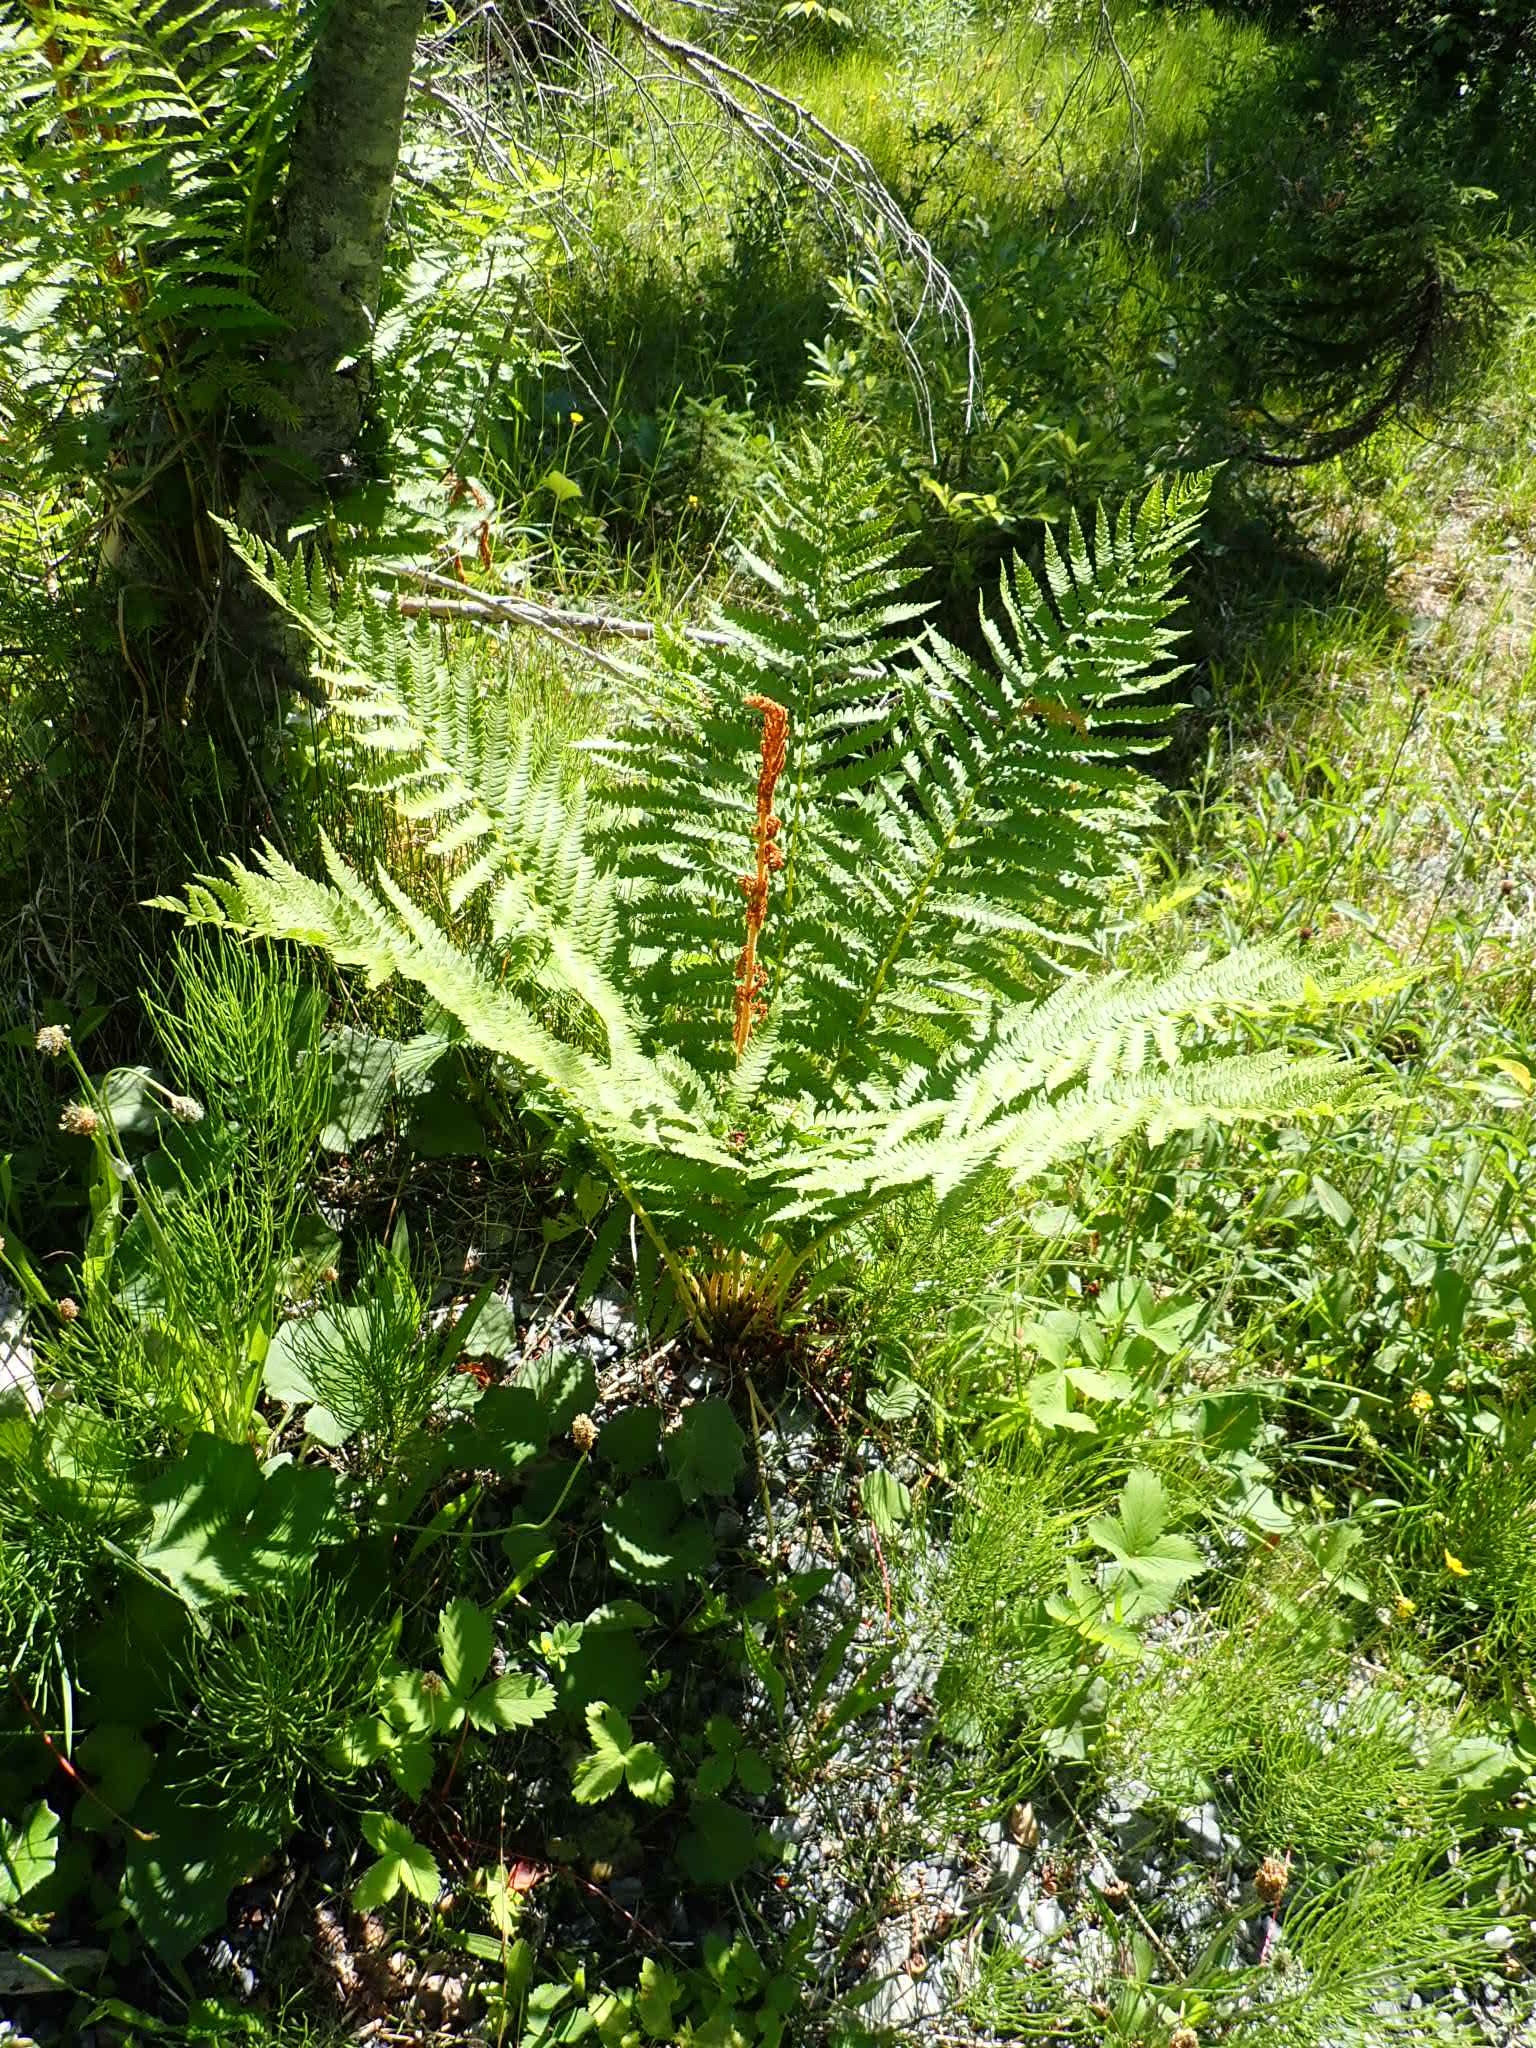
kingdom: Plantae
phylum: Tracheophyta
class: Polypodiopsida
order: Osmundales
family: Osmundaceae
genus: Osmundastrum
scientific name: Osmundastrum cinnamomeum
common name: Cinnamon fern
